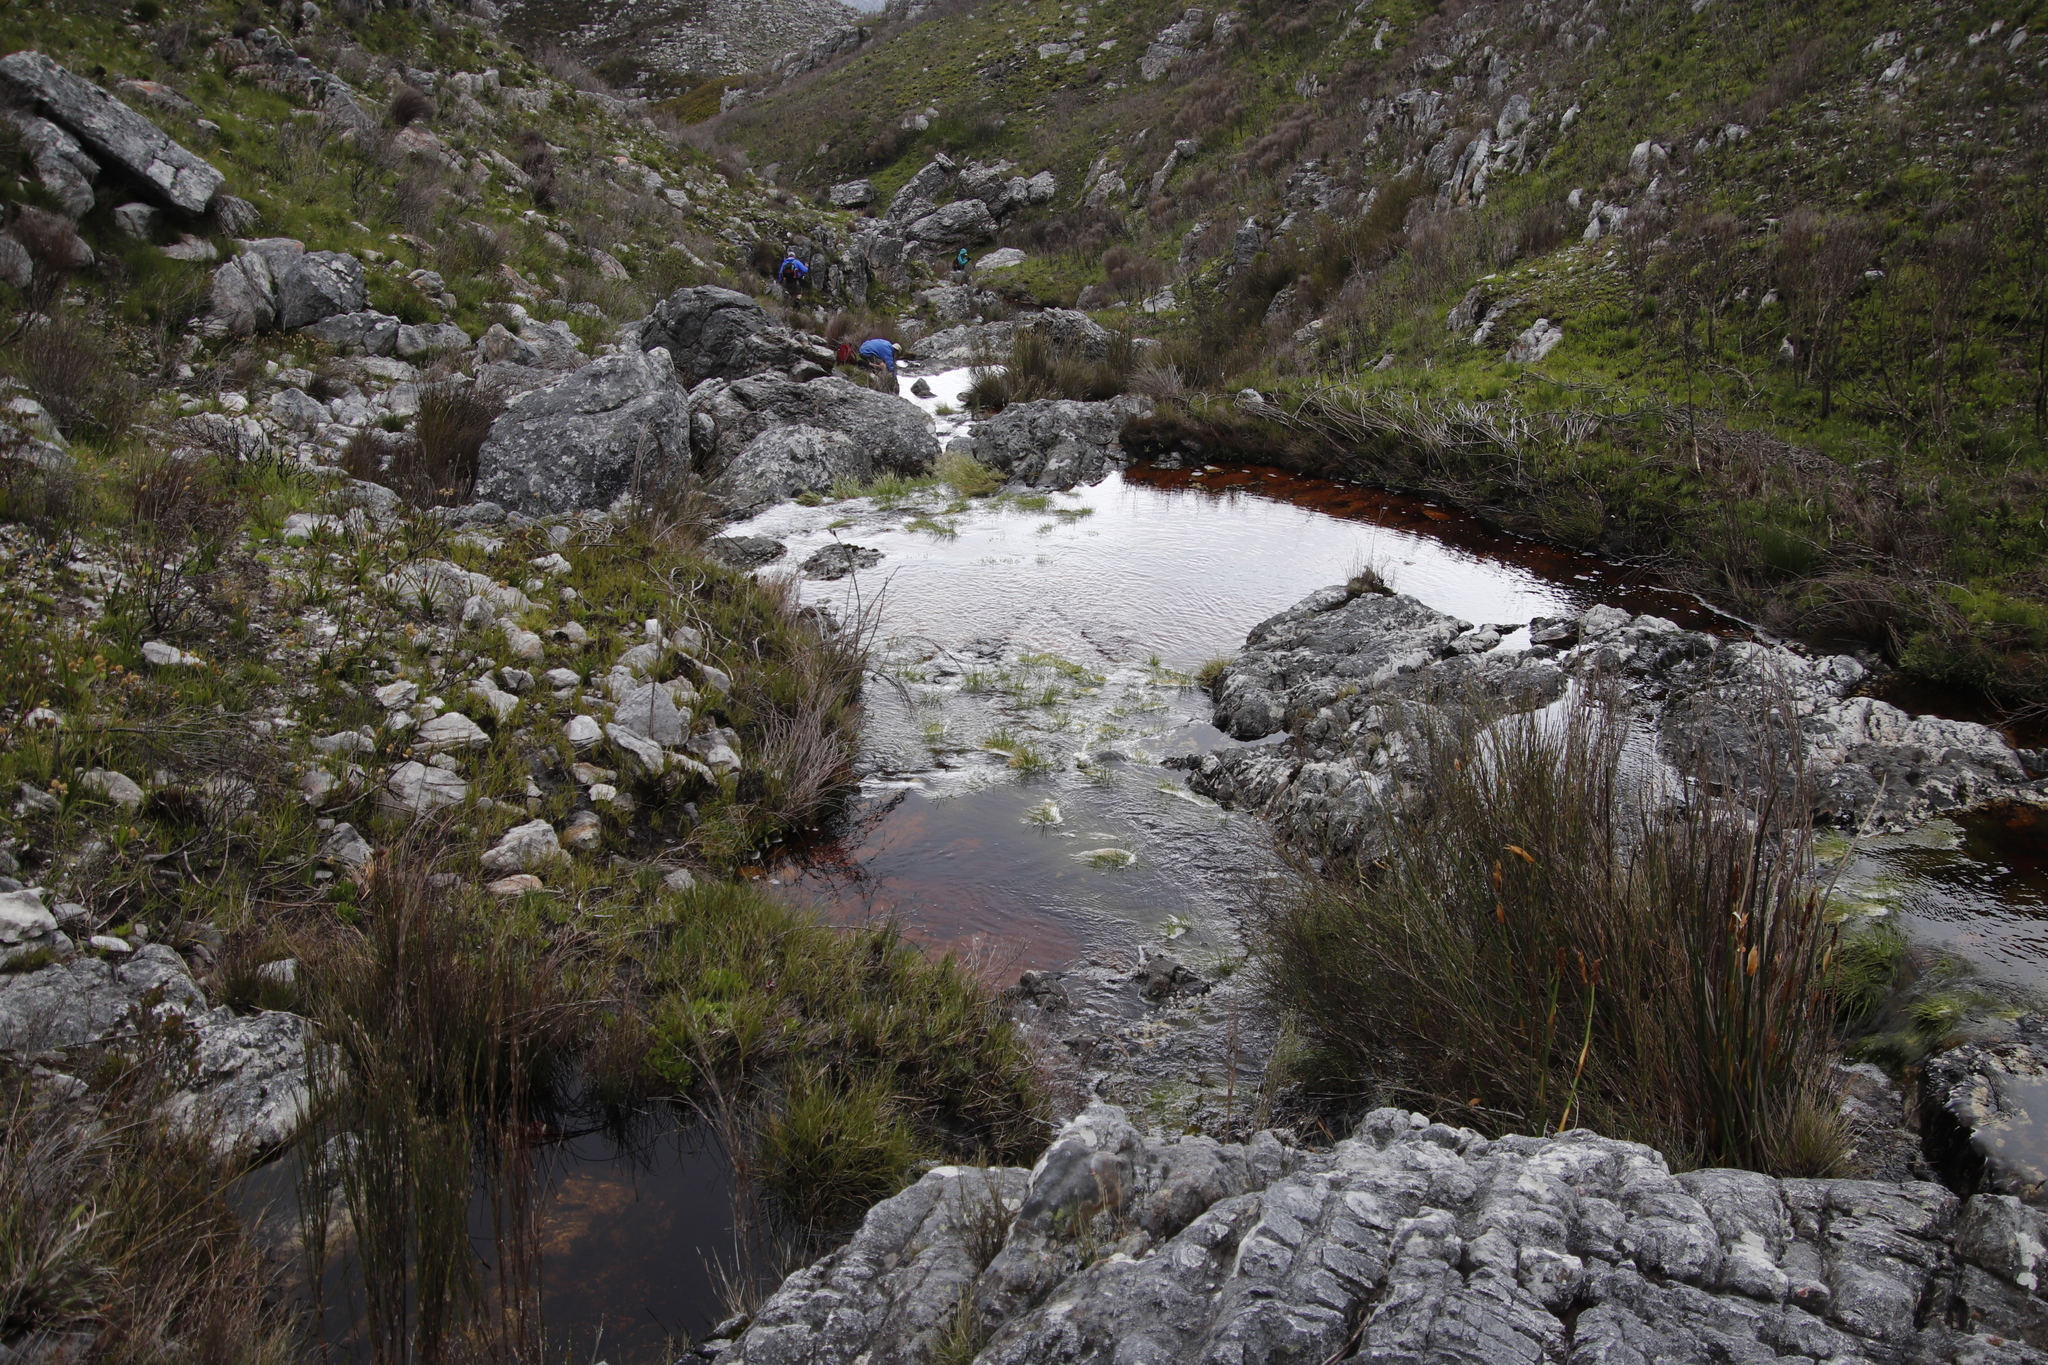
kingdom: Plantae
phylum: Tracheophyta
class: Liliopsida
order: Poales
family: Cyperaceae
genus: Isolepis
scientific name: Isolepis digitata
